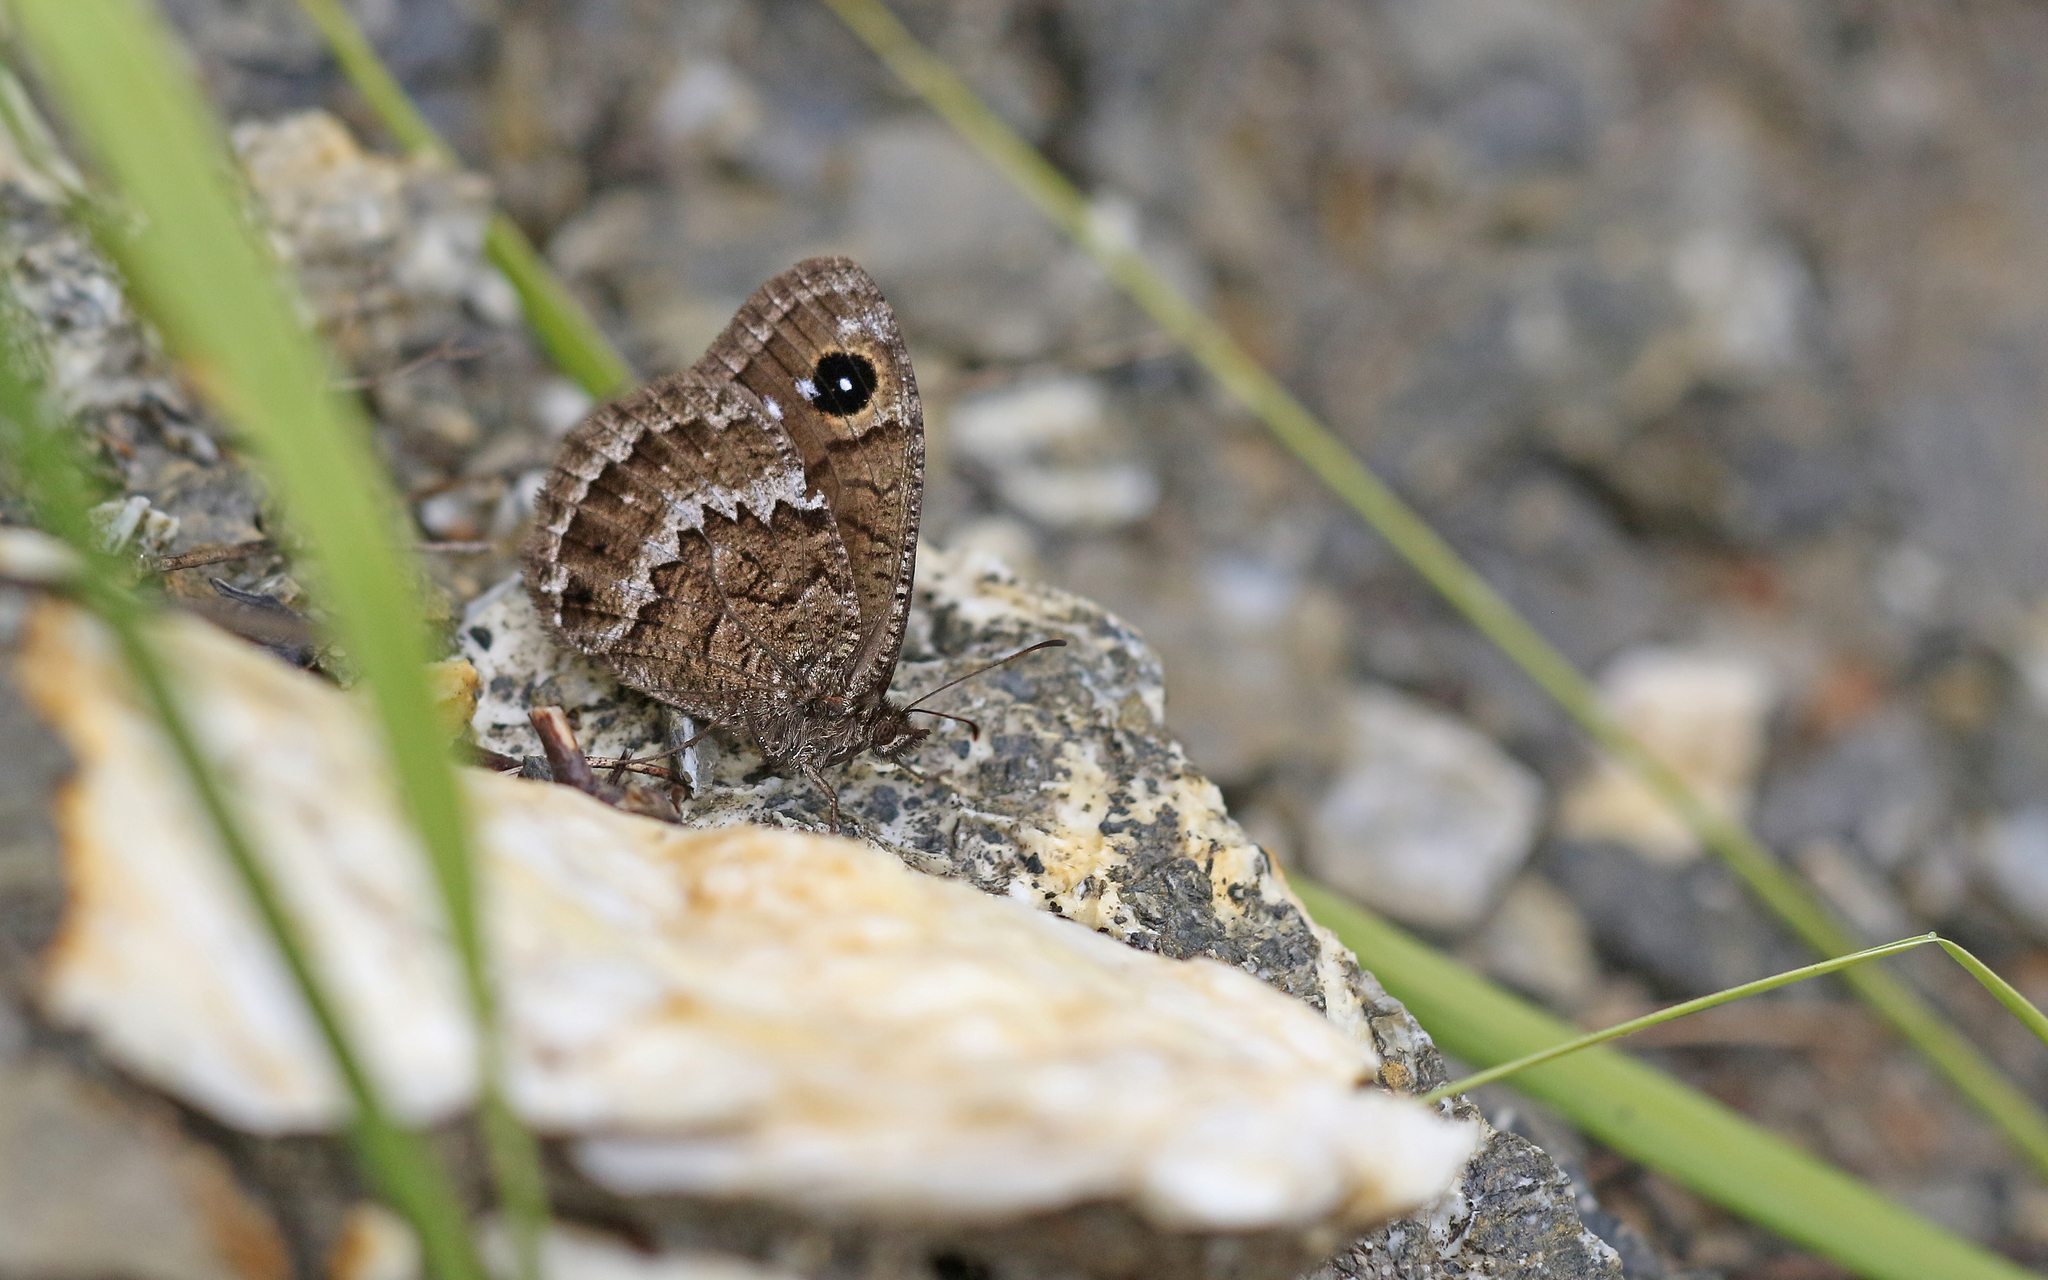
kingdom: Animalia
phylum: Arthropoda
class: Insecta
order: Lepidoptera
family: Nymphalidae
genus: Satyrus
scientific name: Satyrus ferula
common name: Great sooty satyr
